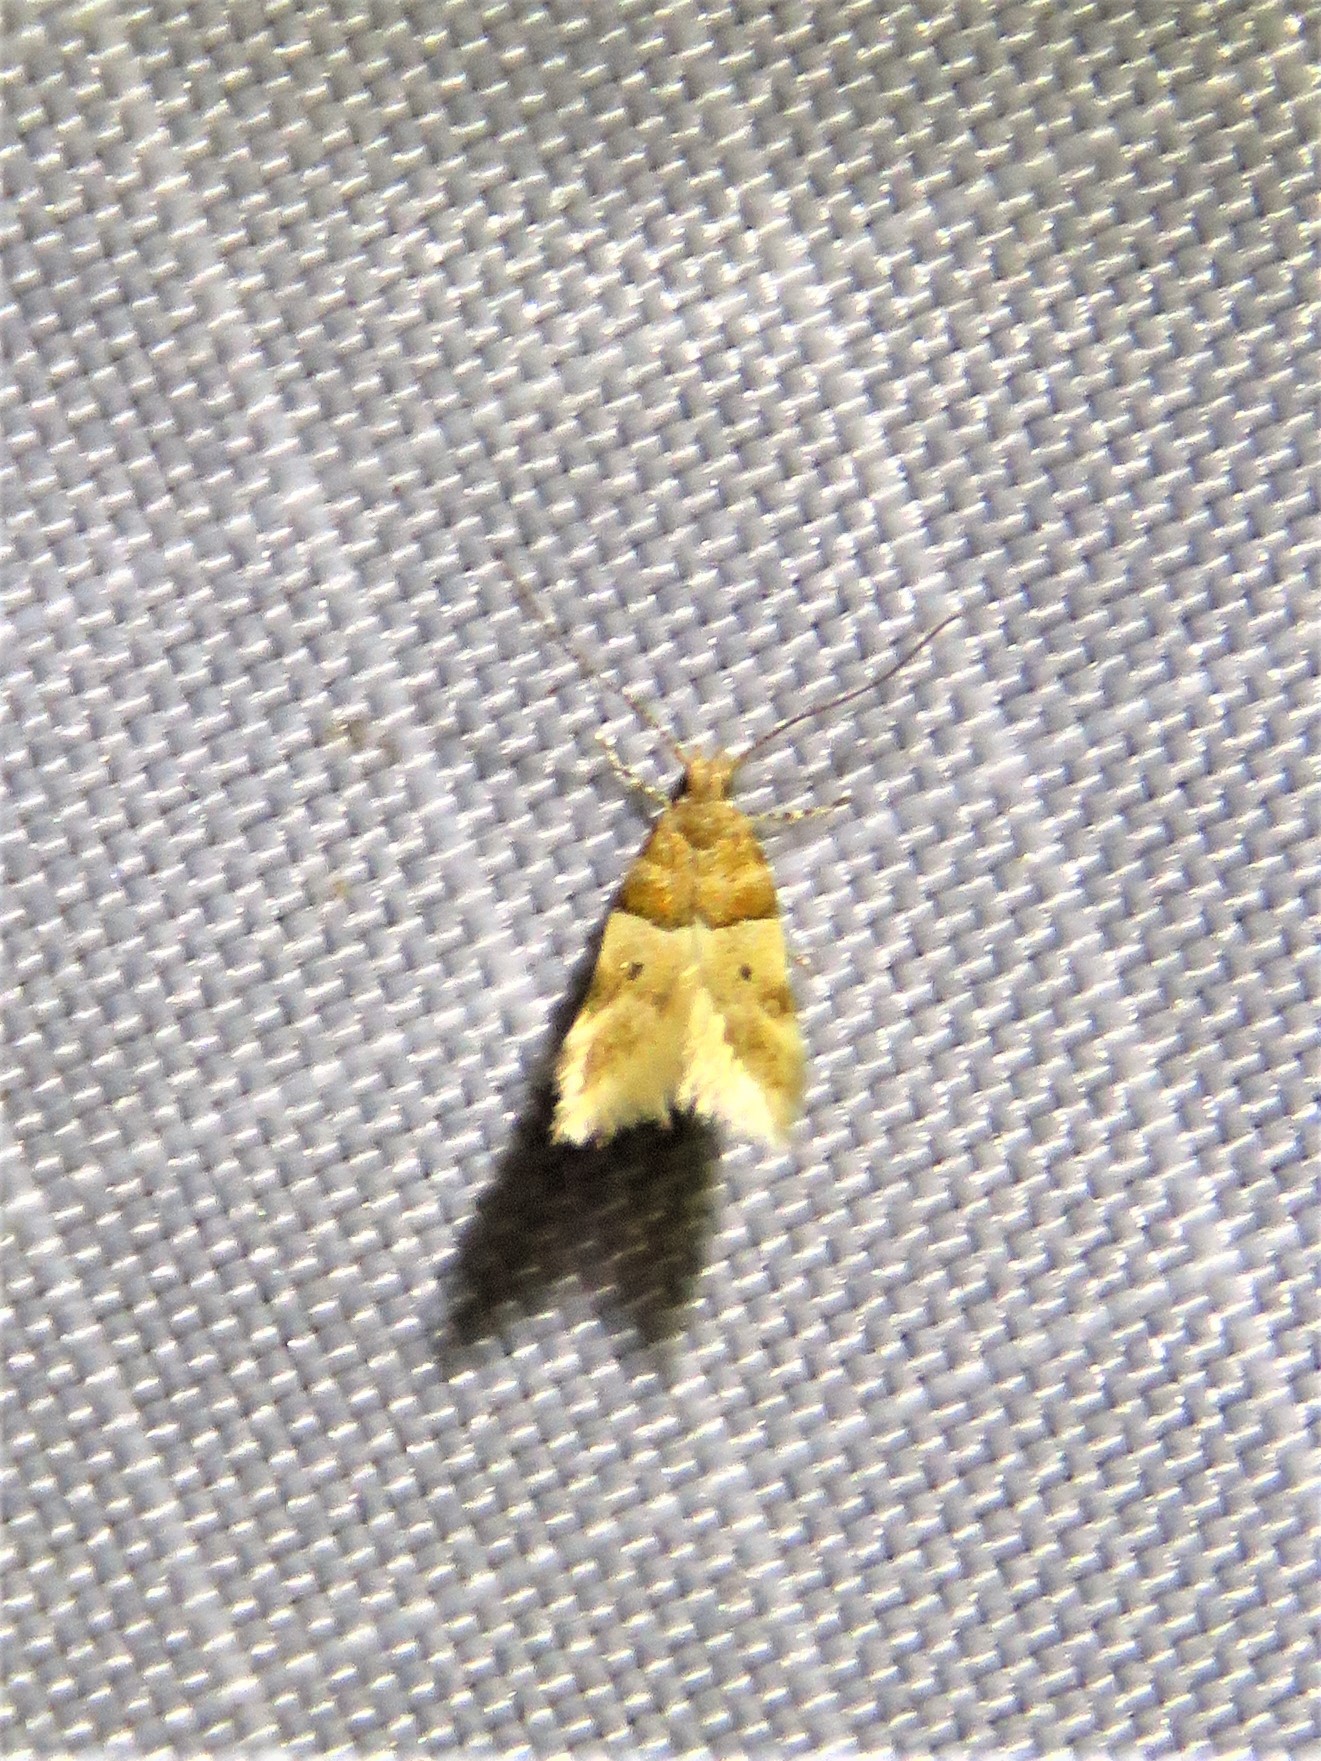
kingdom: Animalia
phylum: Arthropoda
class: Insecta
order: Lepidoptera
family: Gelechiidae
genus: Theisoa
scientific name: Theisoa constrictella
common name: Constricted twirler
